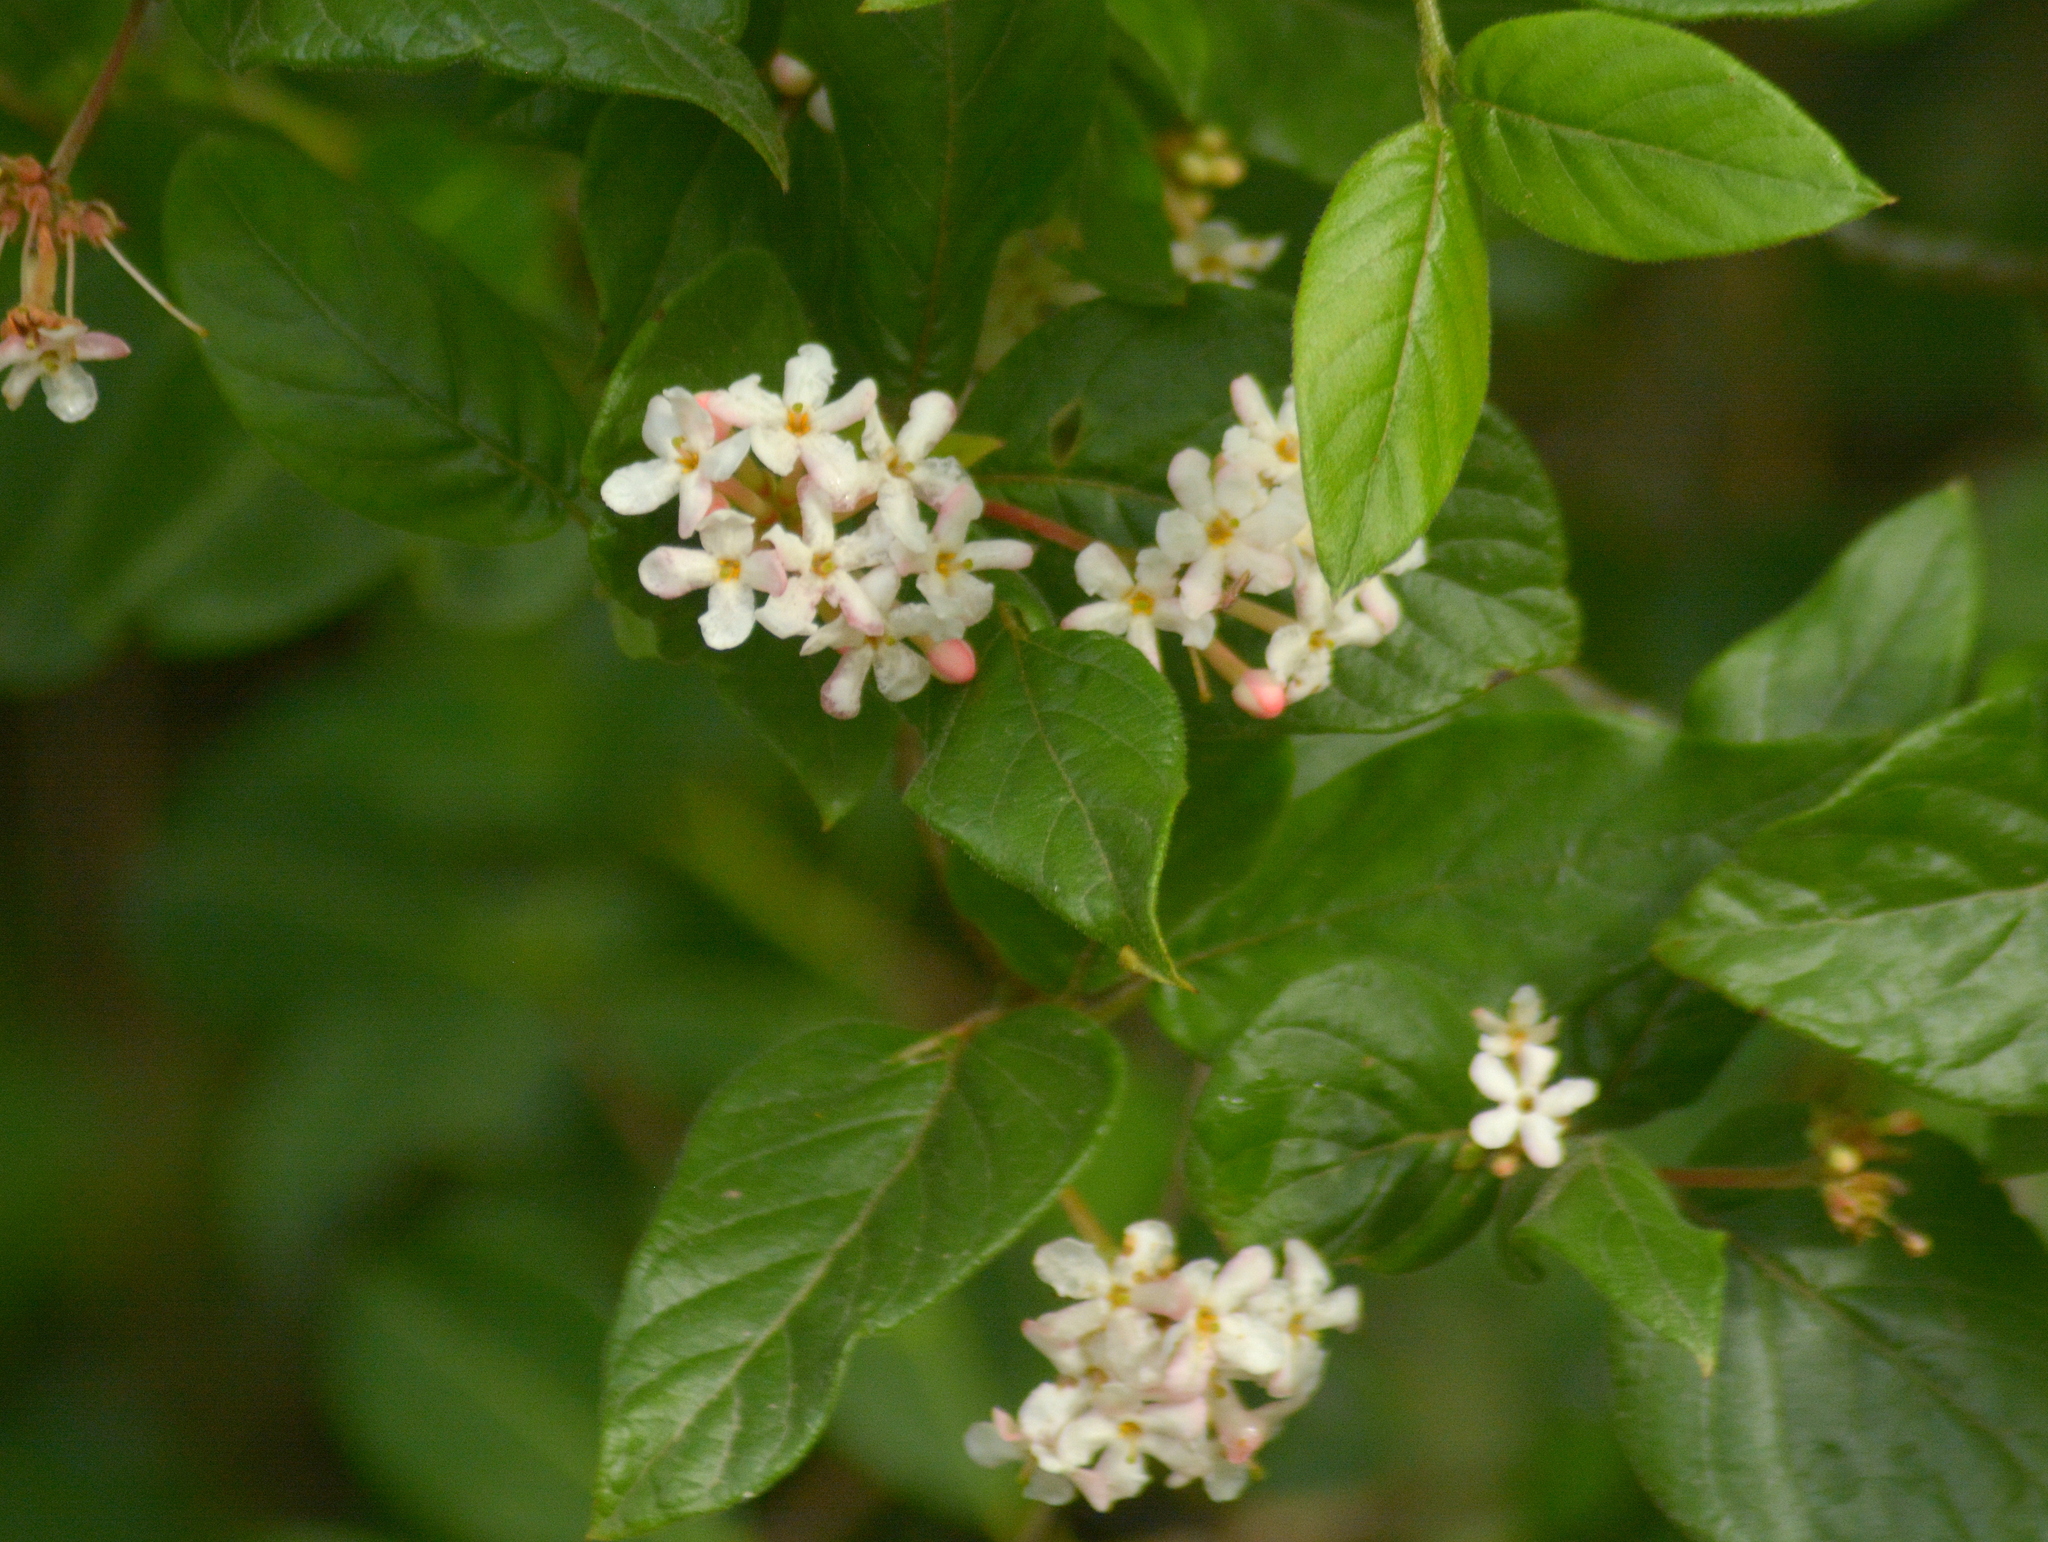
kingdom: Plantae
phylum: Tracheophyta
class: Magnoliopsida
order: Gentianales
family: Rubiaceae
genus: Guettarda
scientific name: Guettarda uruguensis
